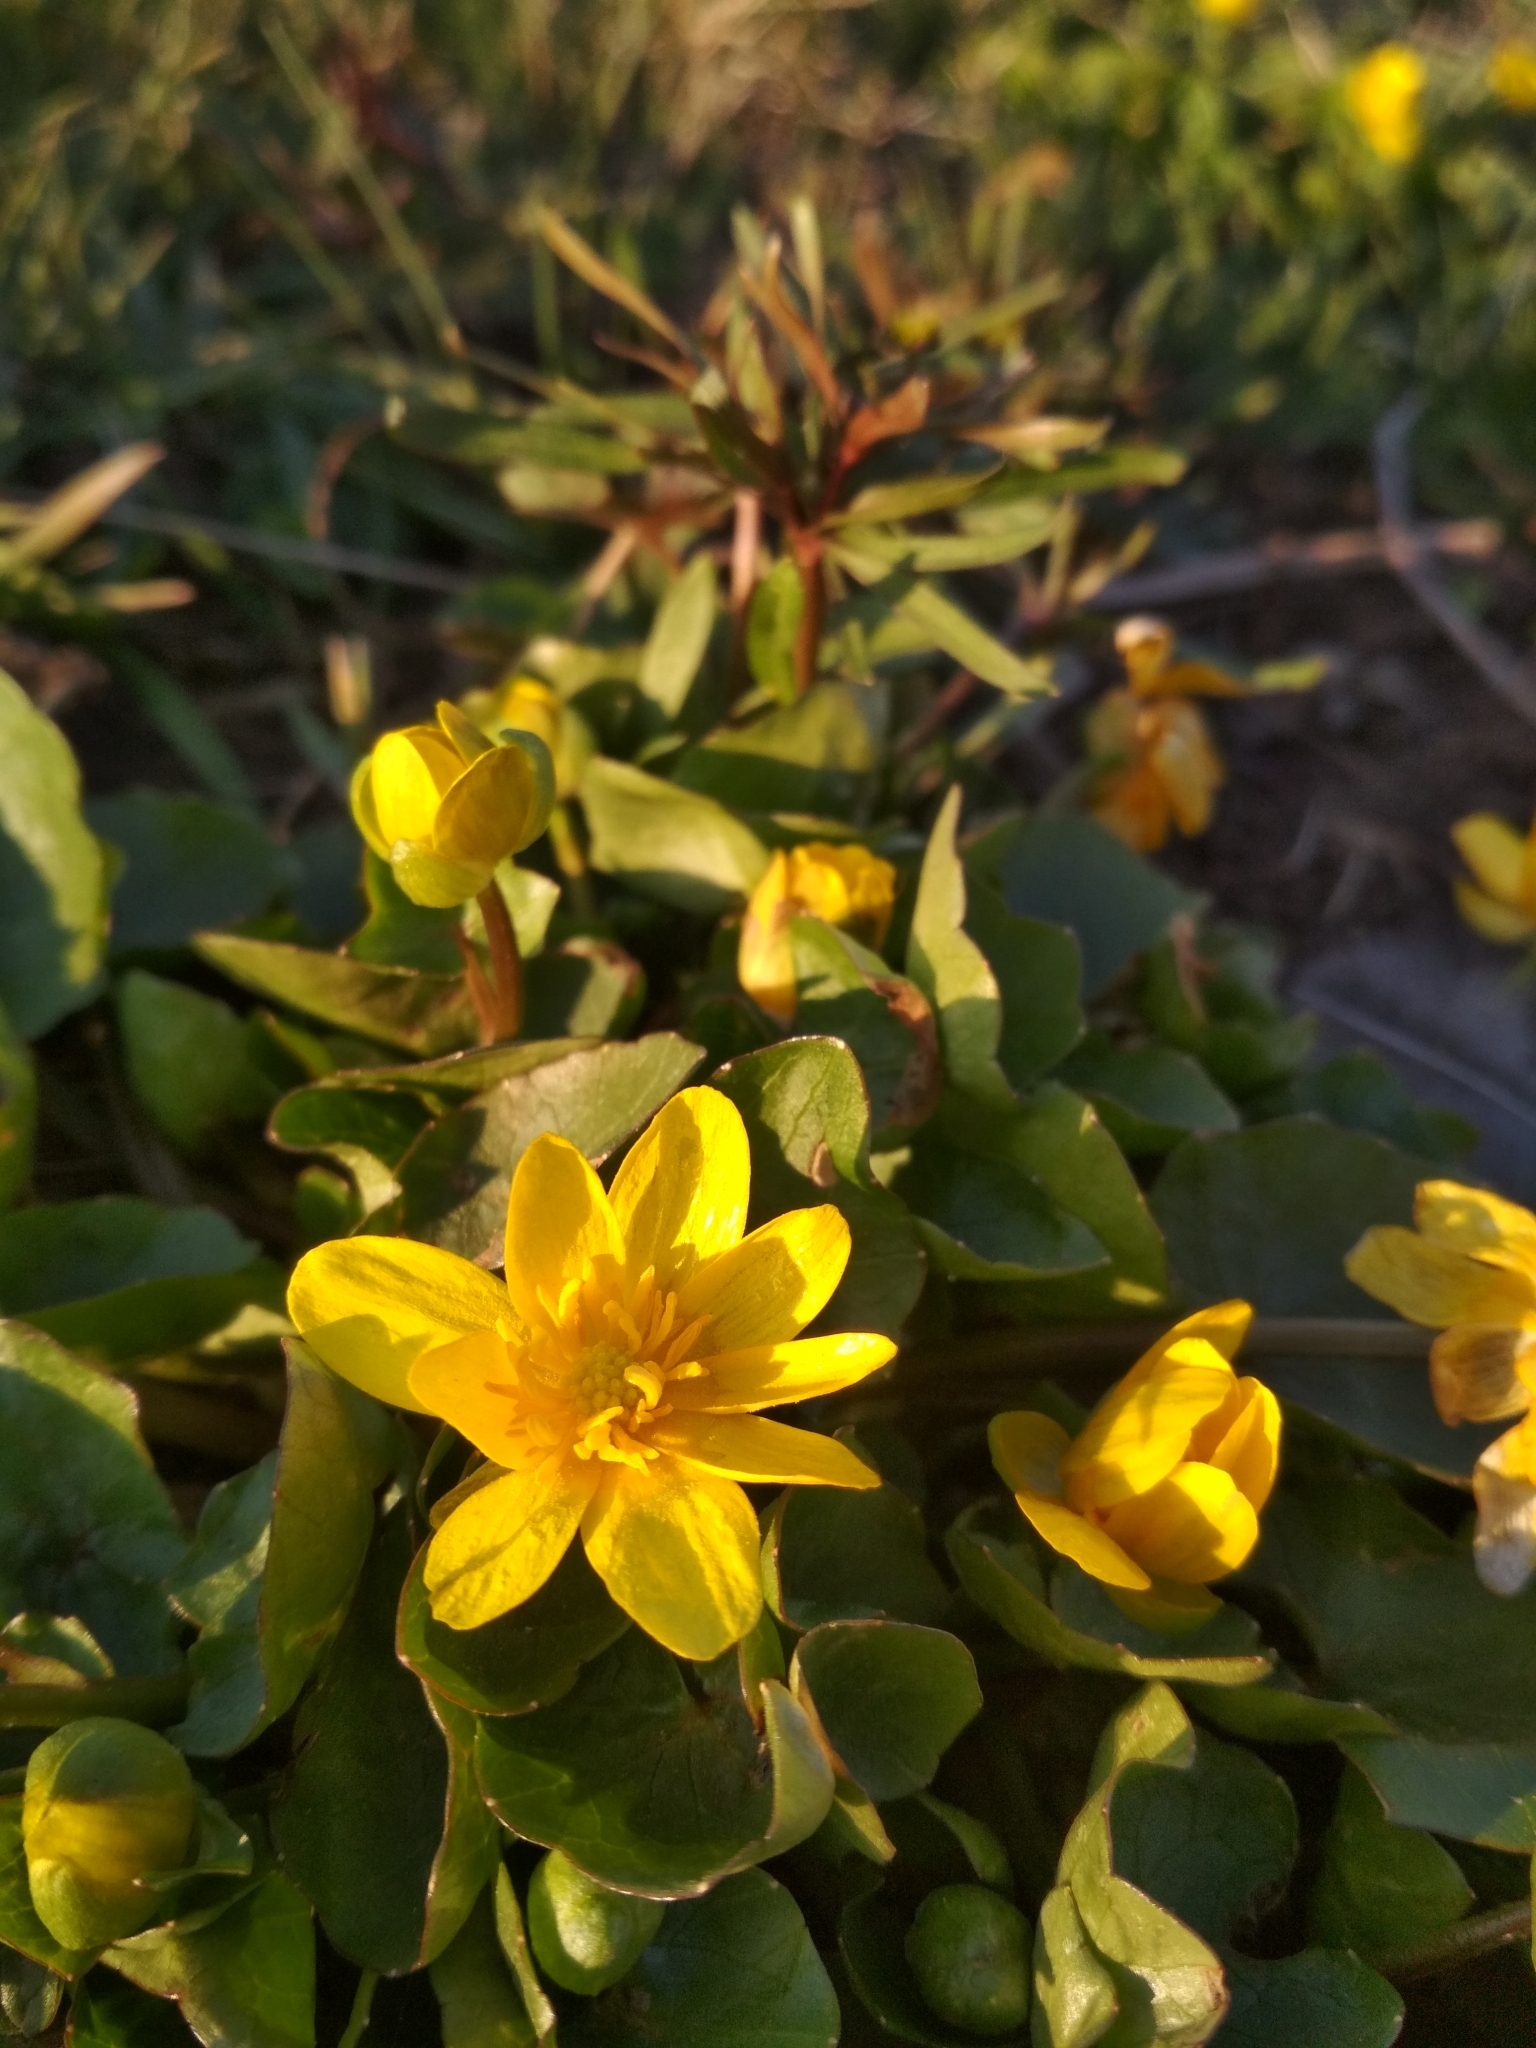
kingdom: Plantae
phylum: Tracheophyta
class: Magnoliopsida
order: Ranunculales
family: Ranunculaceae
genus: Ficaria
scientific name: Ficaria verna
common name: Lesser celandine
